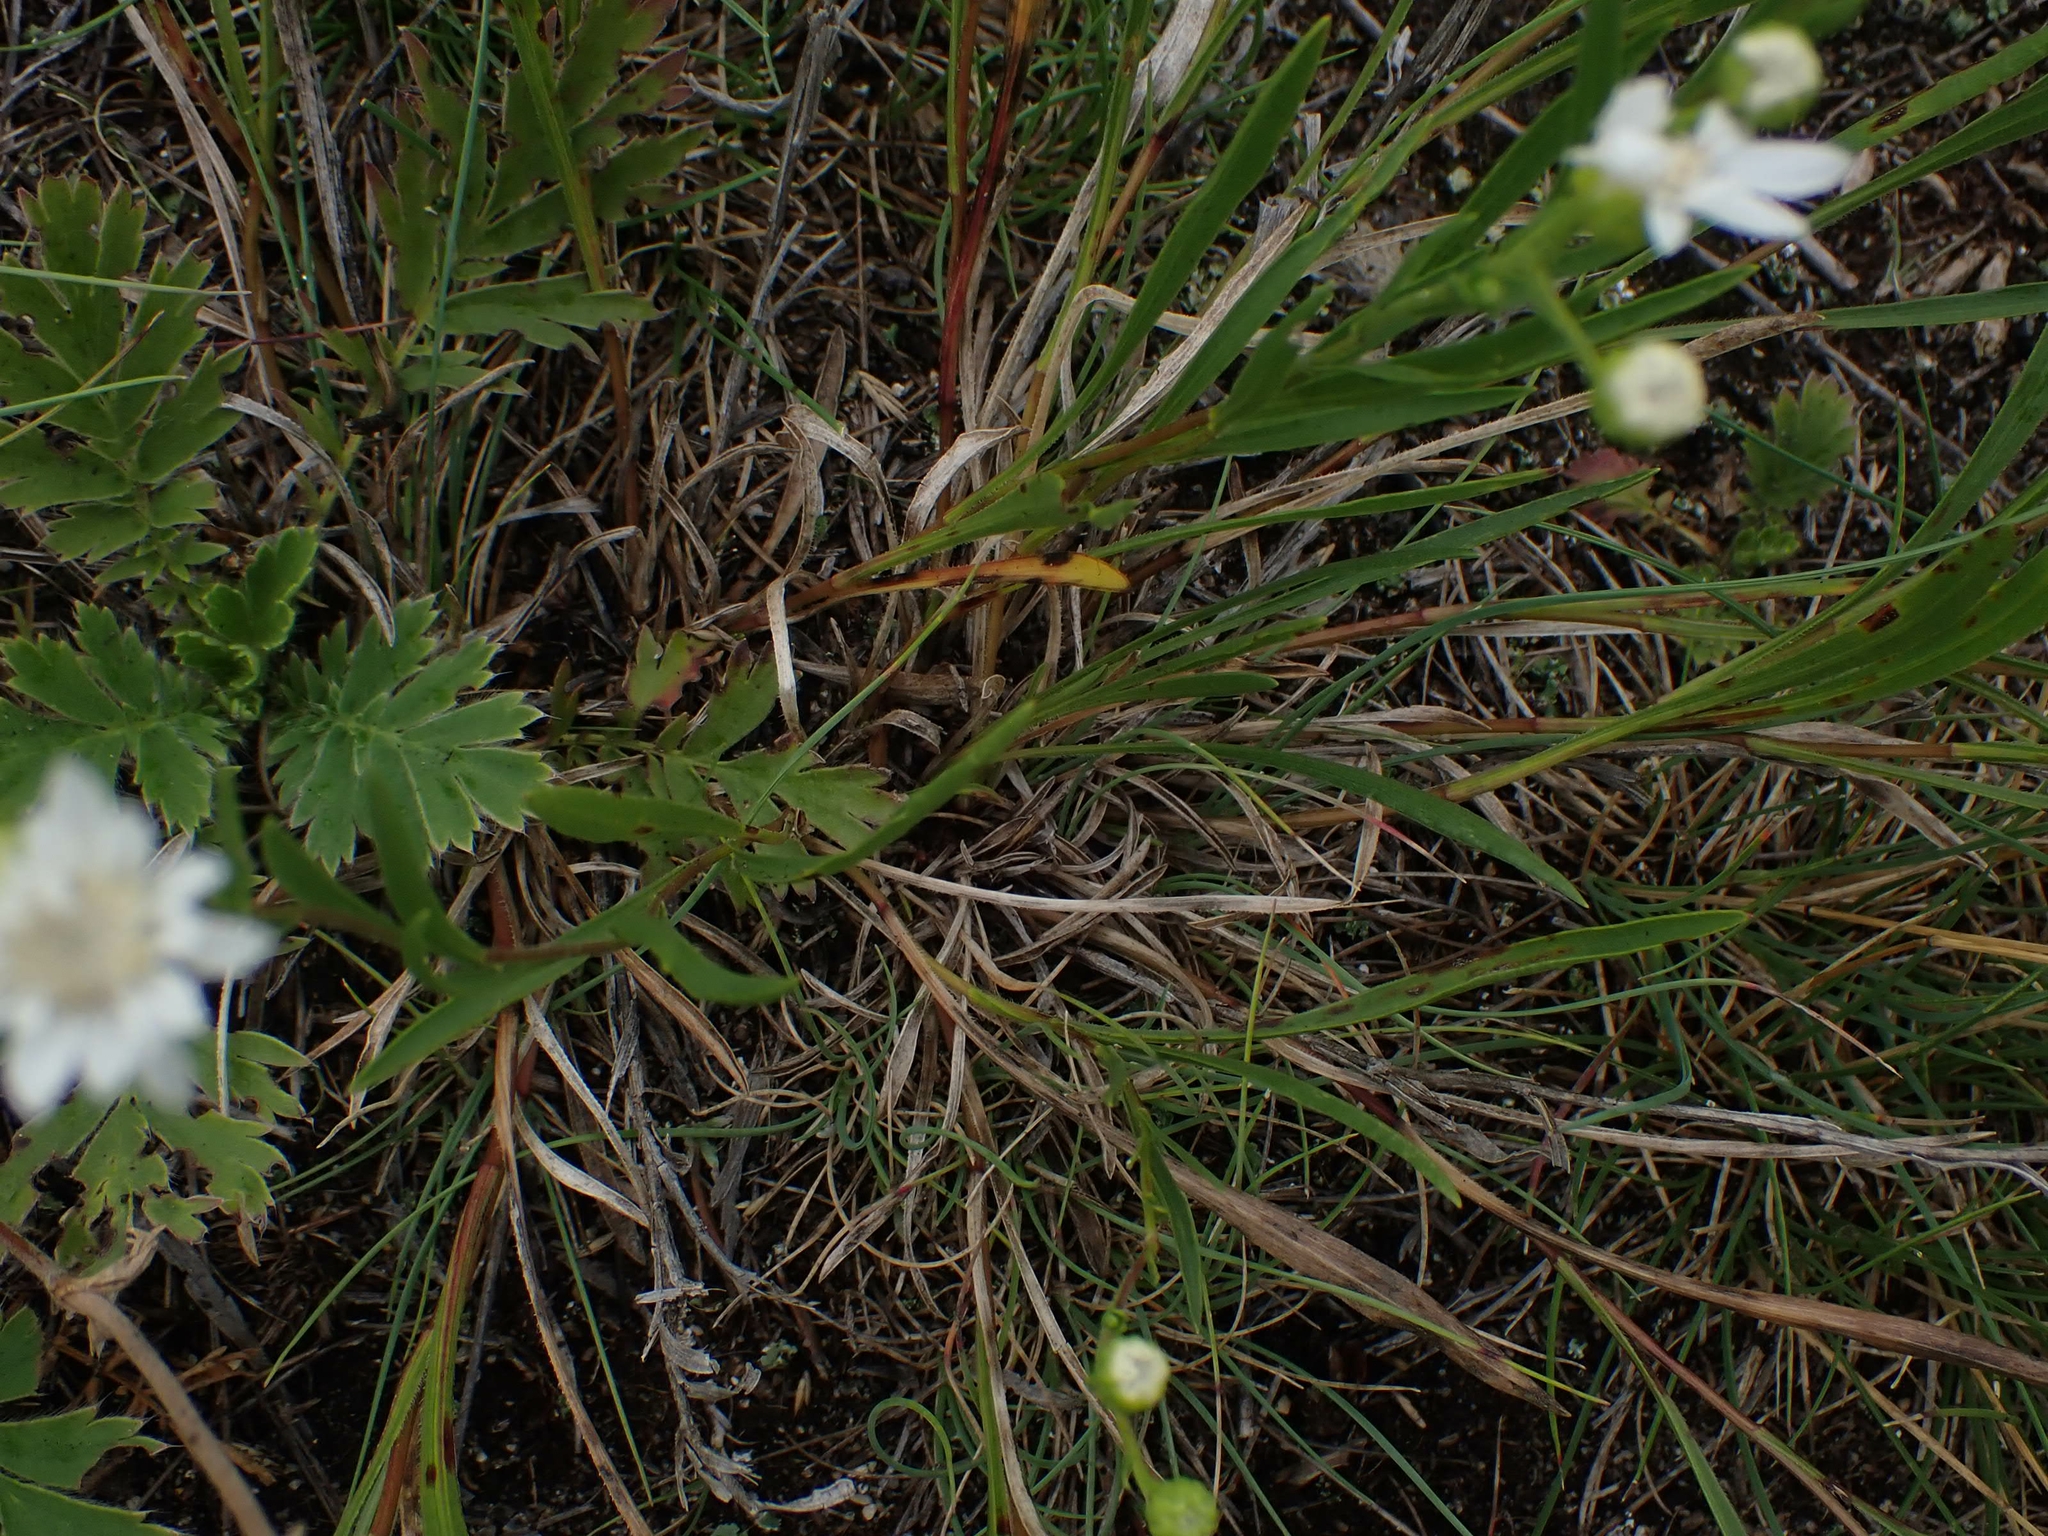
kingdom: Plantae
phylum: Tracheophyta
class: Magnoliopsida
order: Asterales
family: Asteraceae
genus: Solidago
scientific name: Solidago ptarmicoides
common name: White flat-top goldenrod
